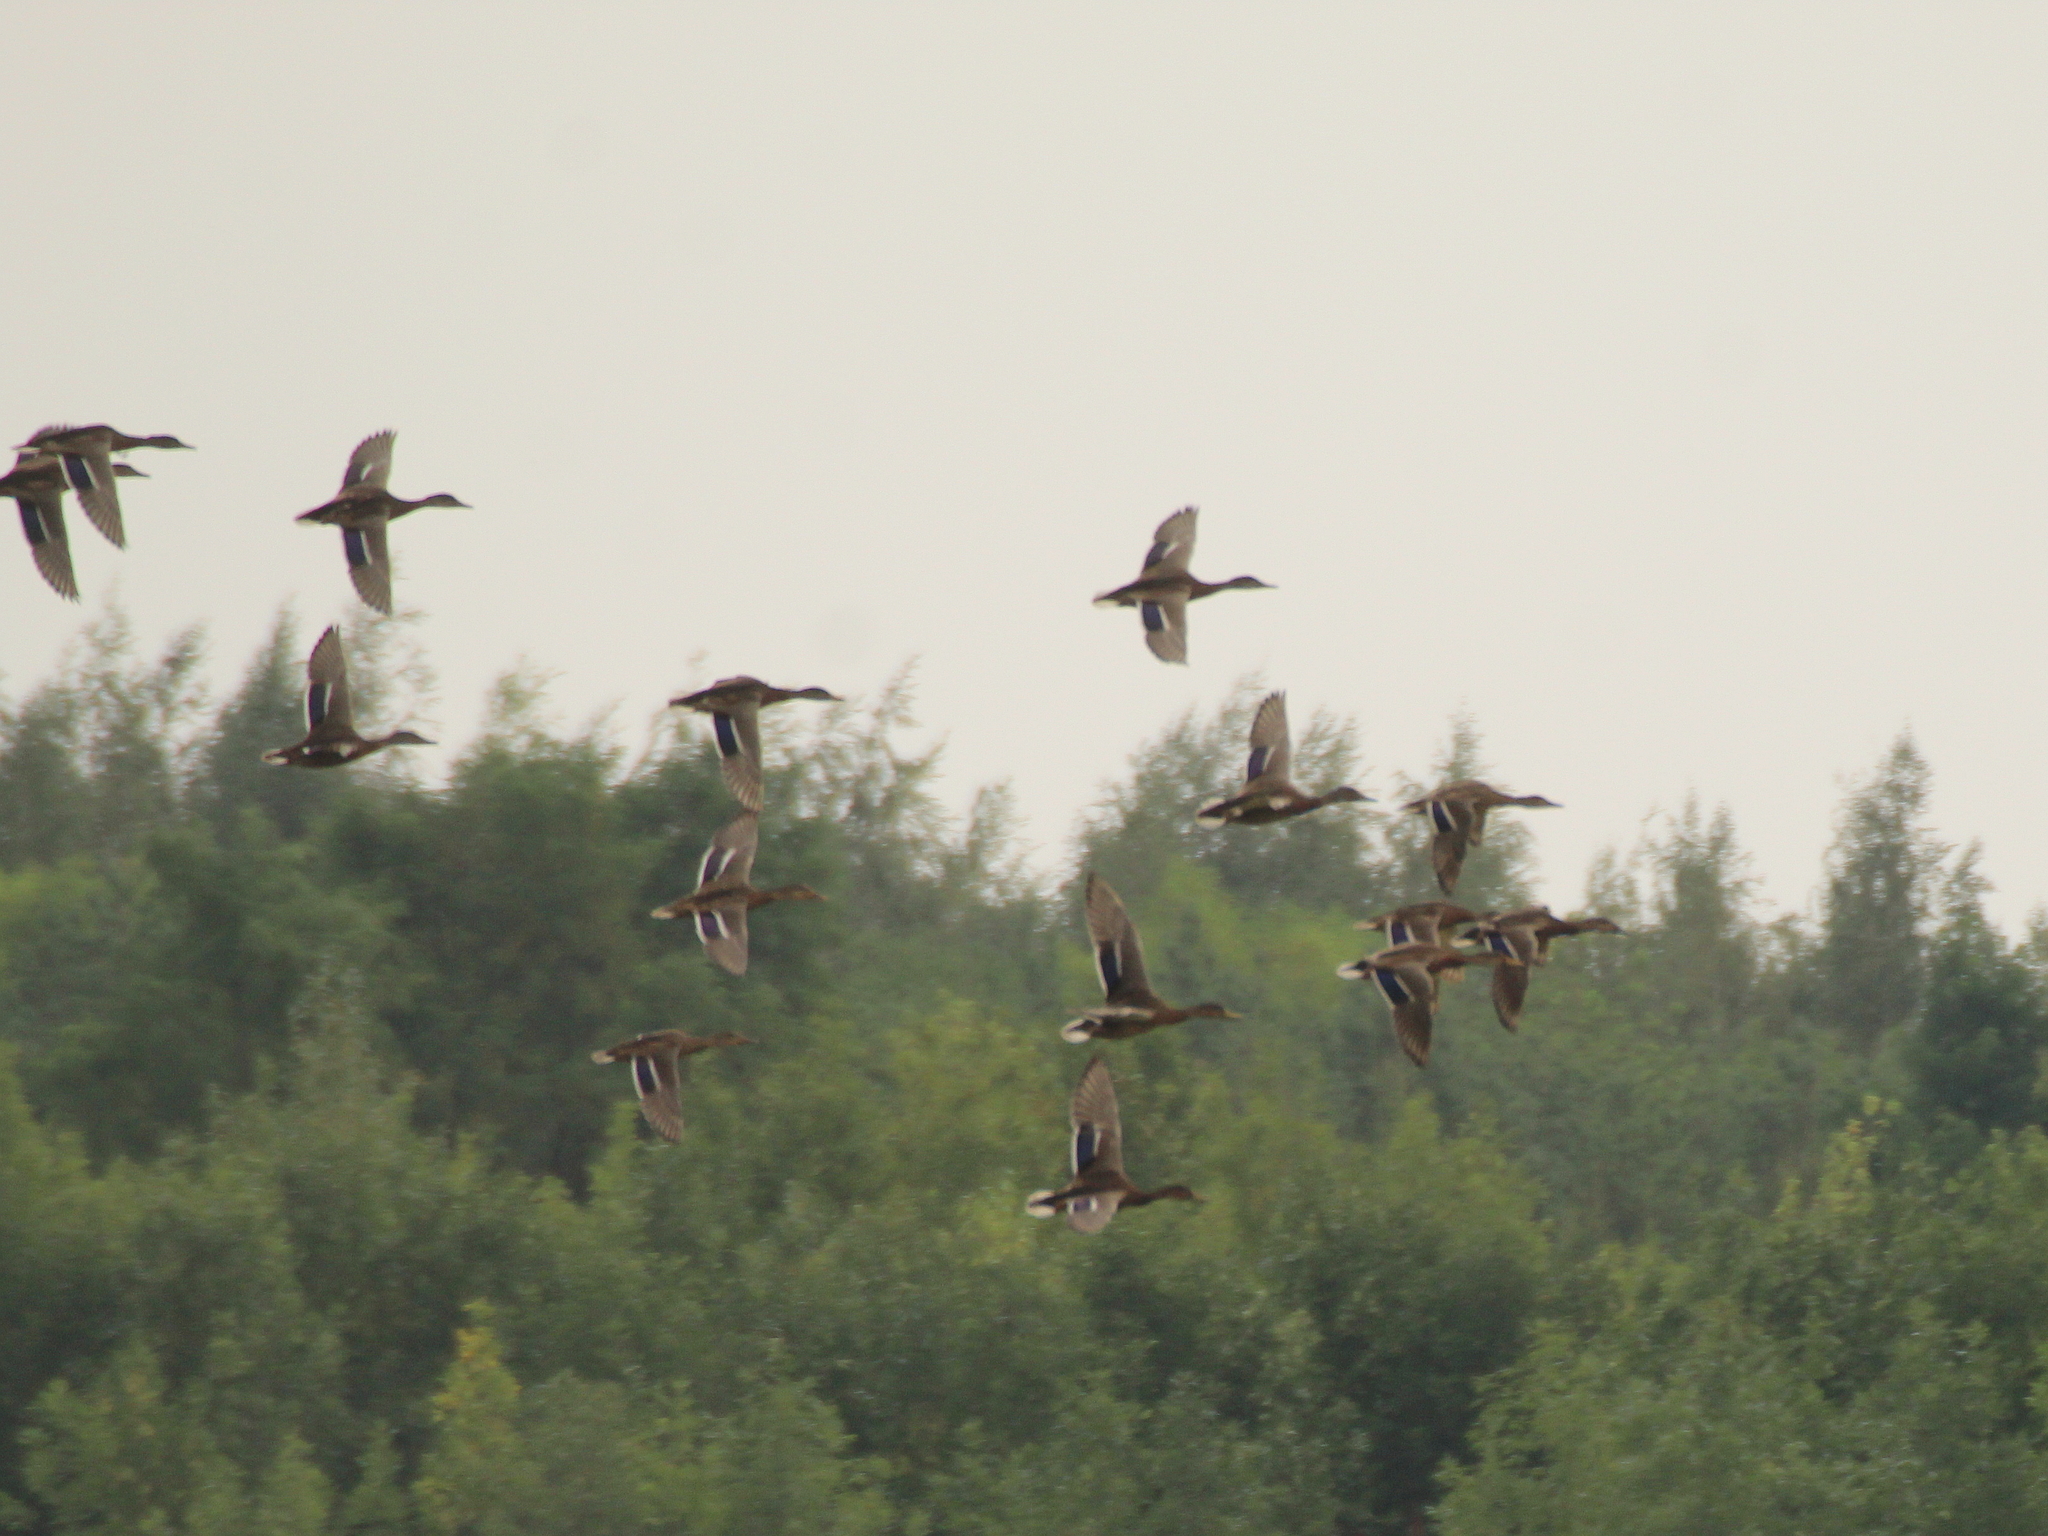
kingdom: Animalia
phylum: Chordata
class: Aves
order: Anseriformes
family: Anatidae
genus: Anas
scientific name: Anas platyrhynchos
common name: Mallard
